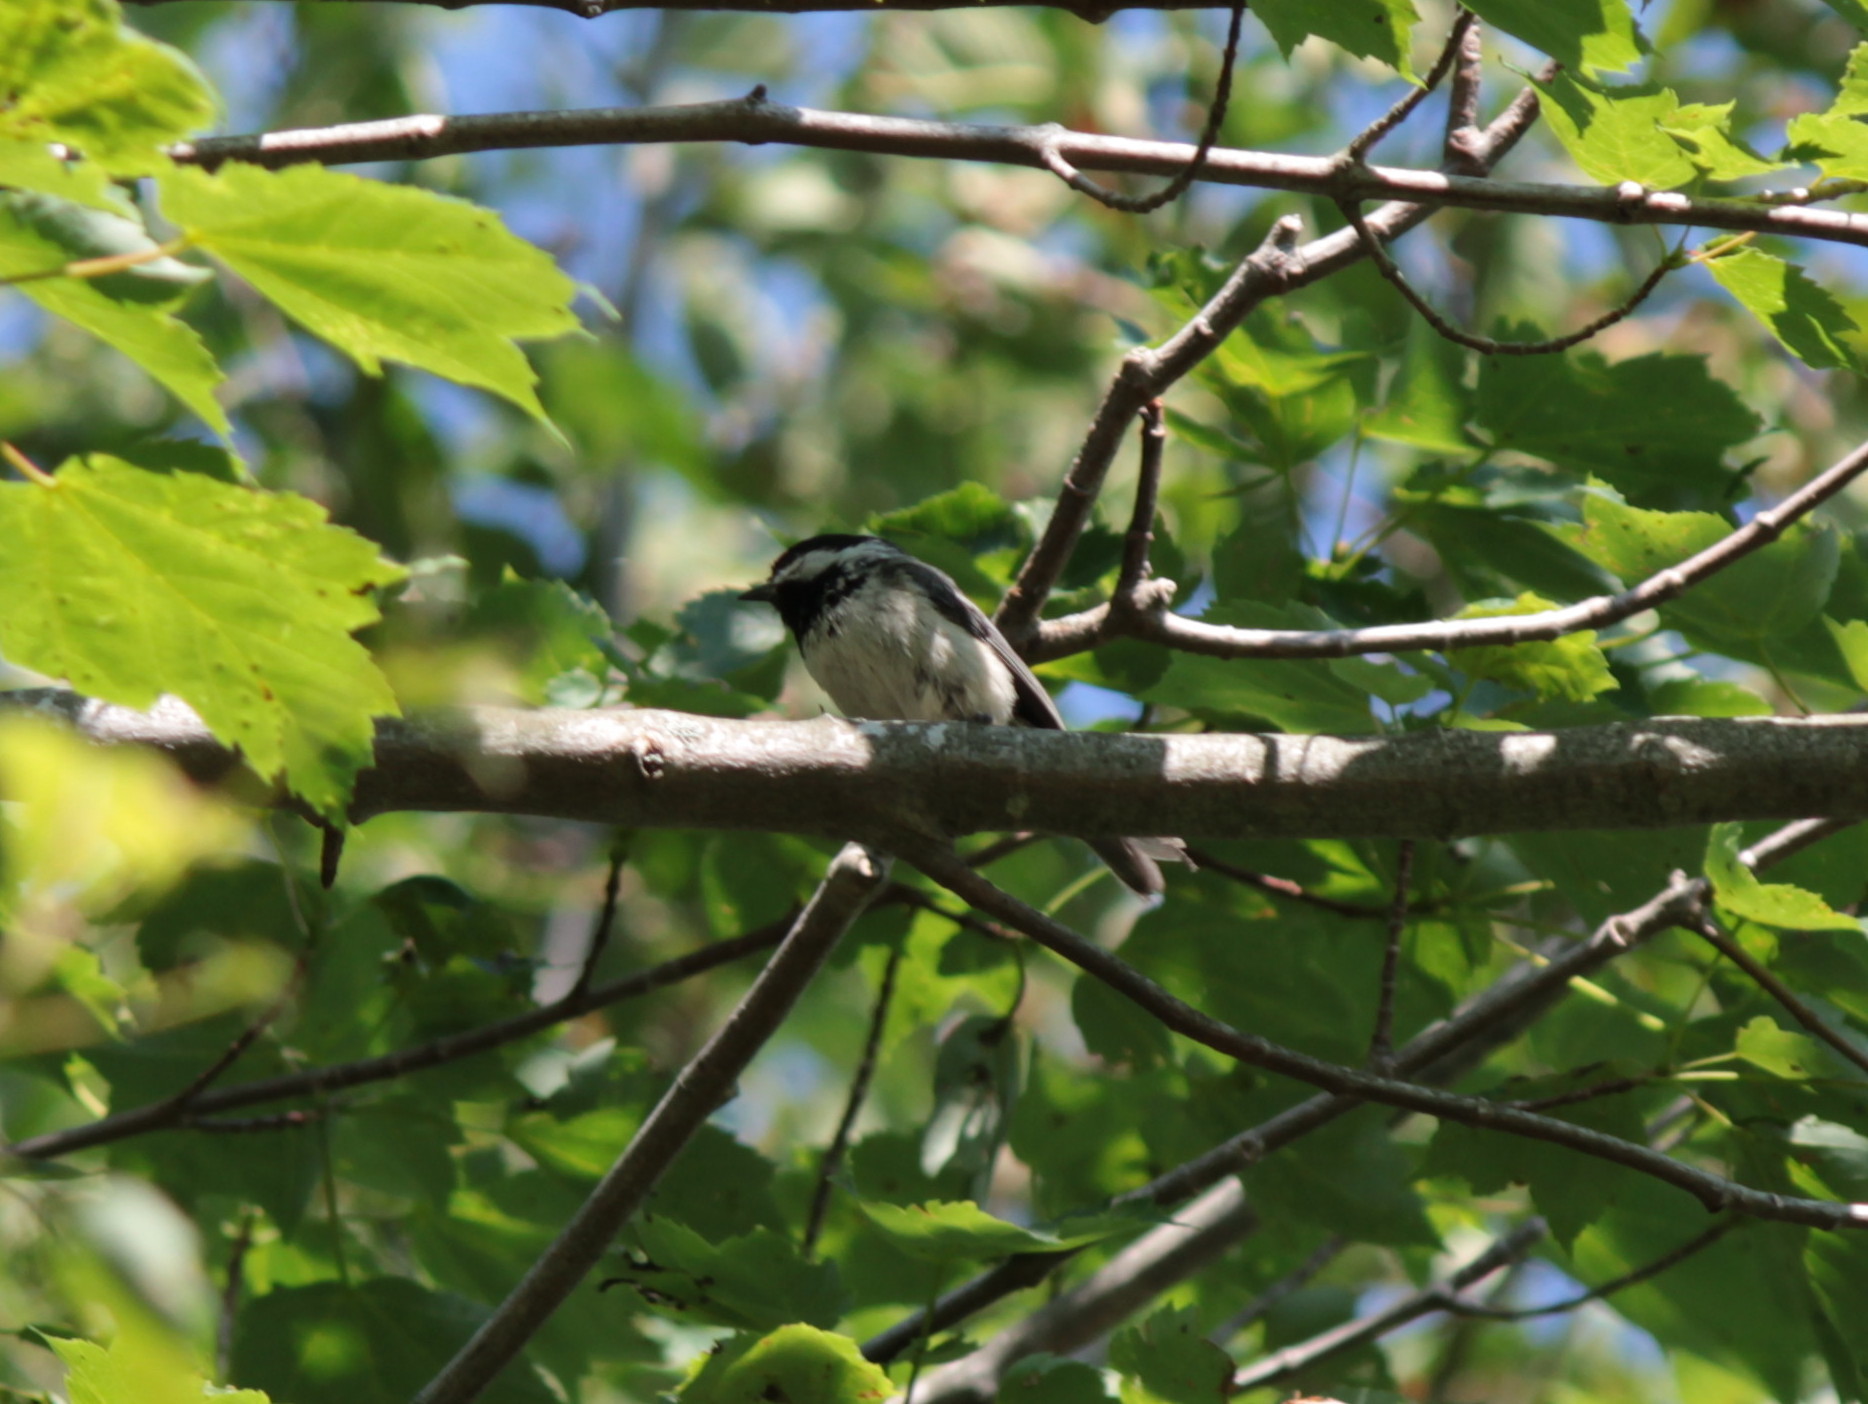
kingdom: Animalia
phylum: Chordata
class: Aves
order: Passeriformes
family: Paridae
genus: Poecile
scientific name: Poecile atricapillus
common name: Black-capped chickadee
